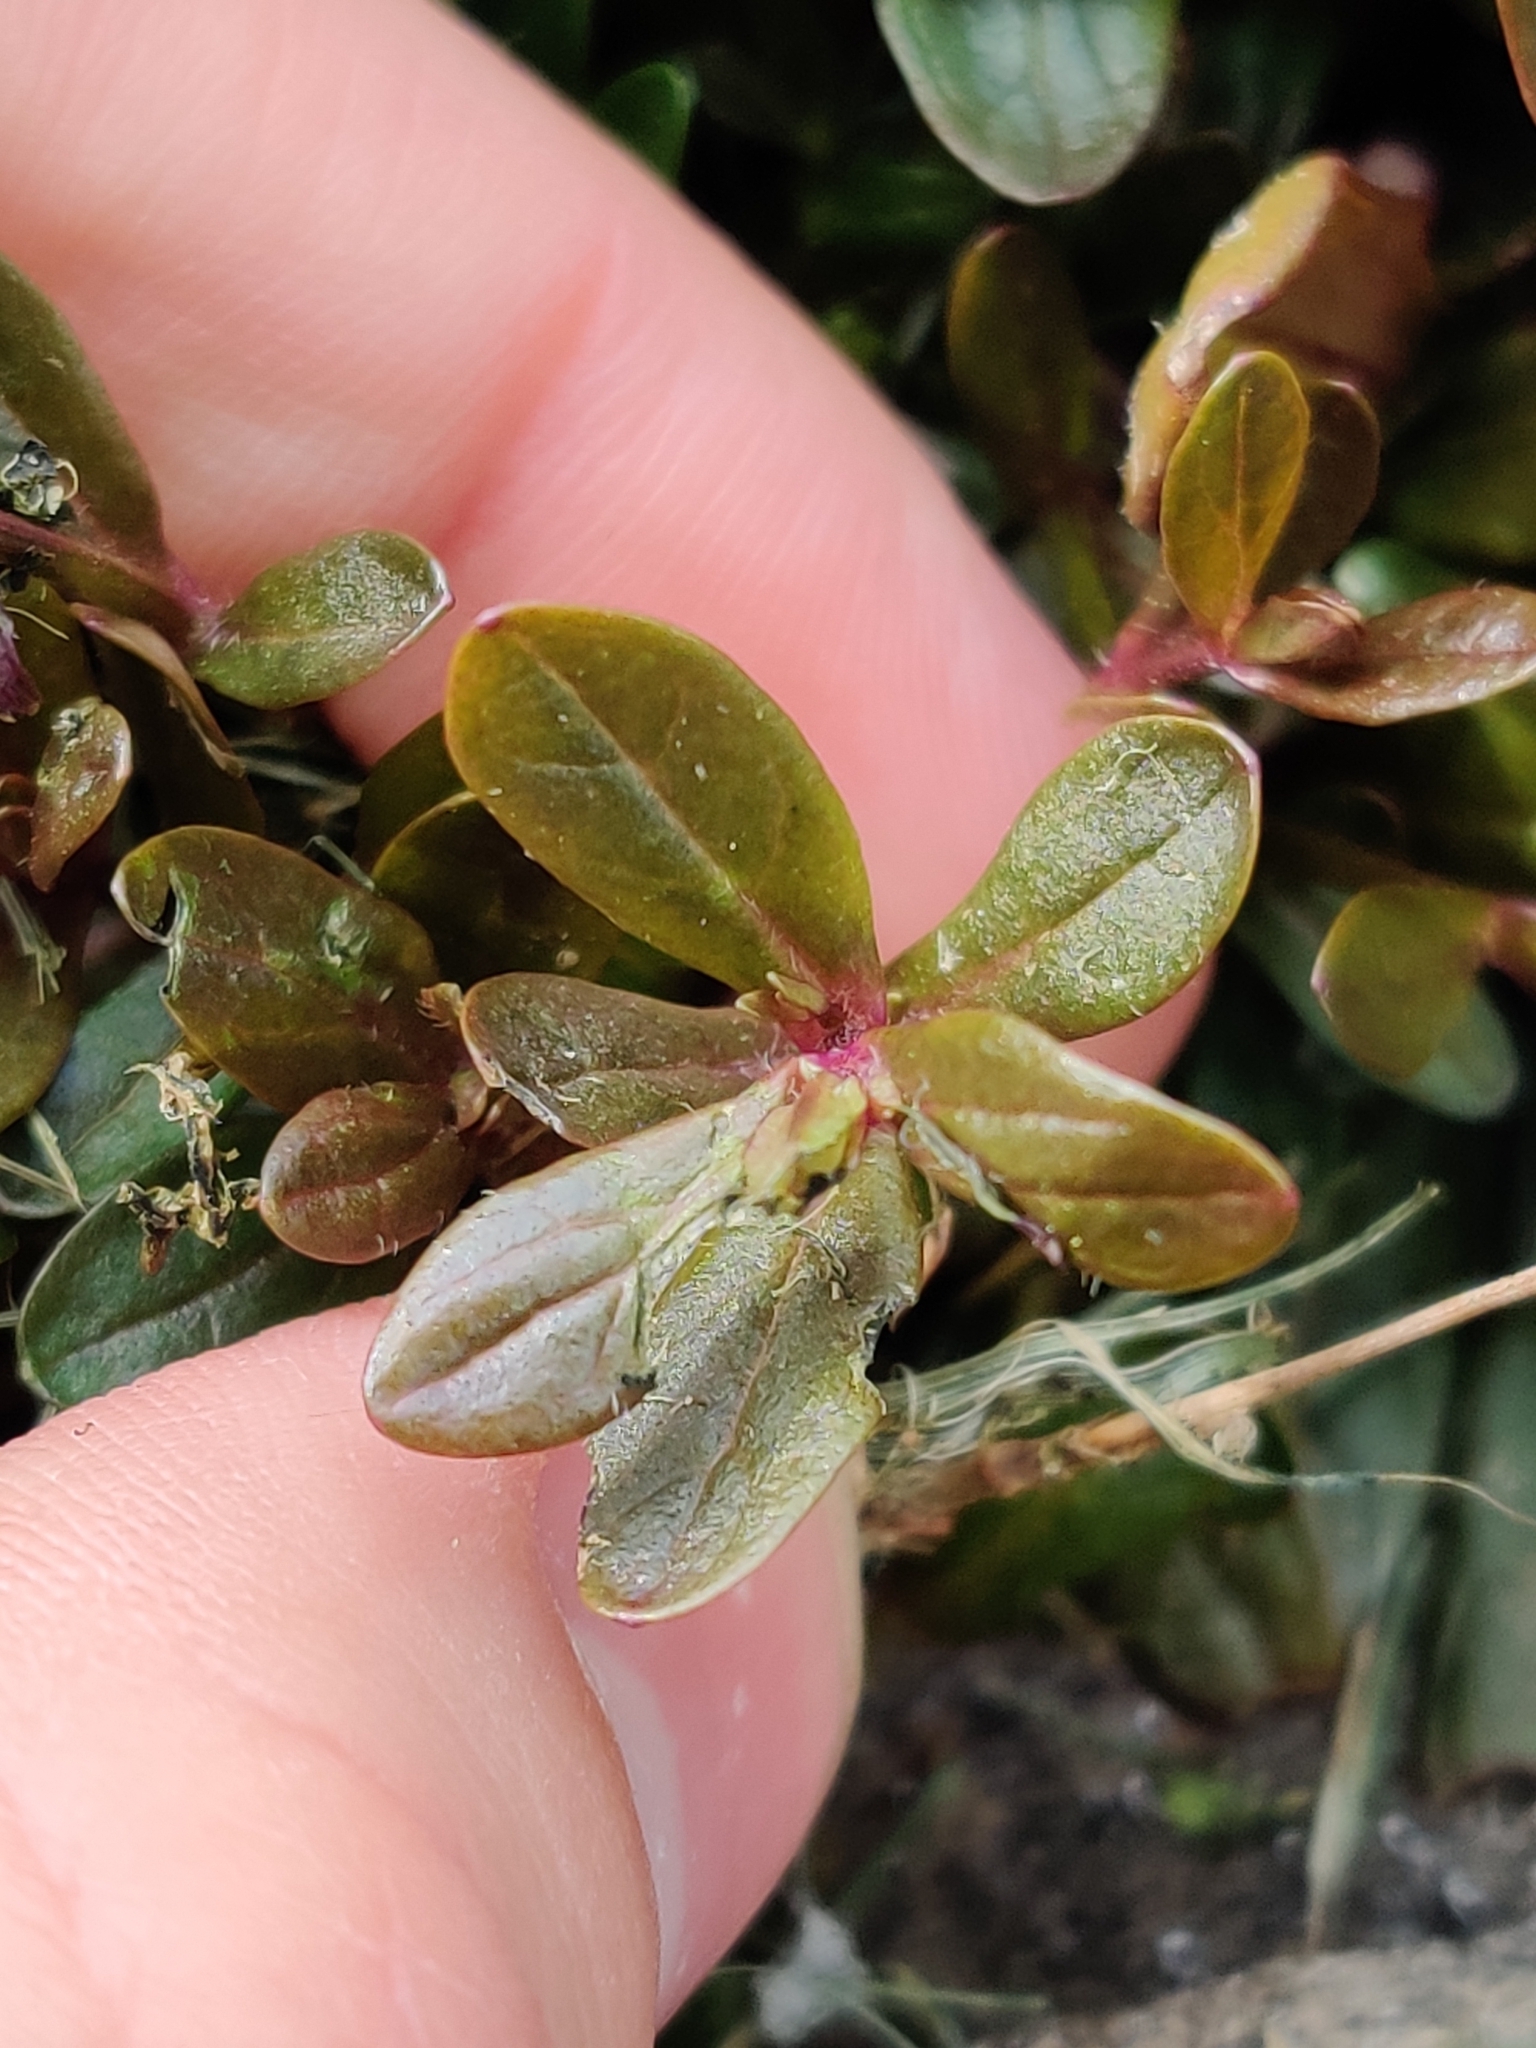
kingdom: Plantae
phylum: Tracheophyta
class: Magnoliopsida
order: Lamiales
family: Lamiaceae
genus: Ajuga
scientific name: Ajuga reptans
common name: Bugle
